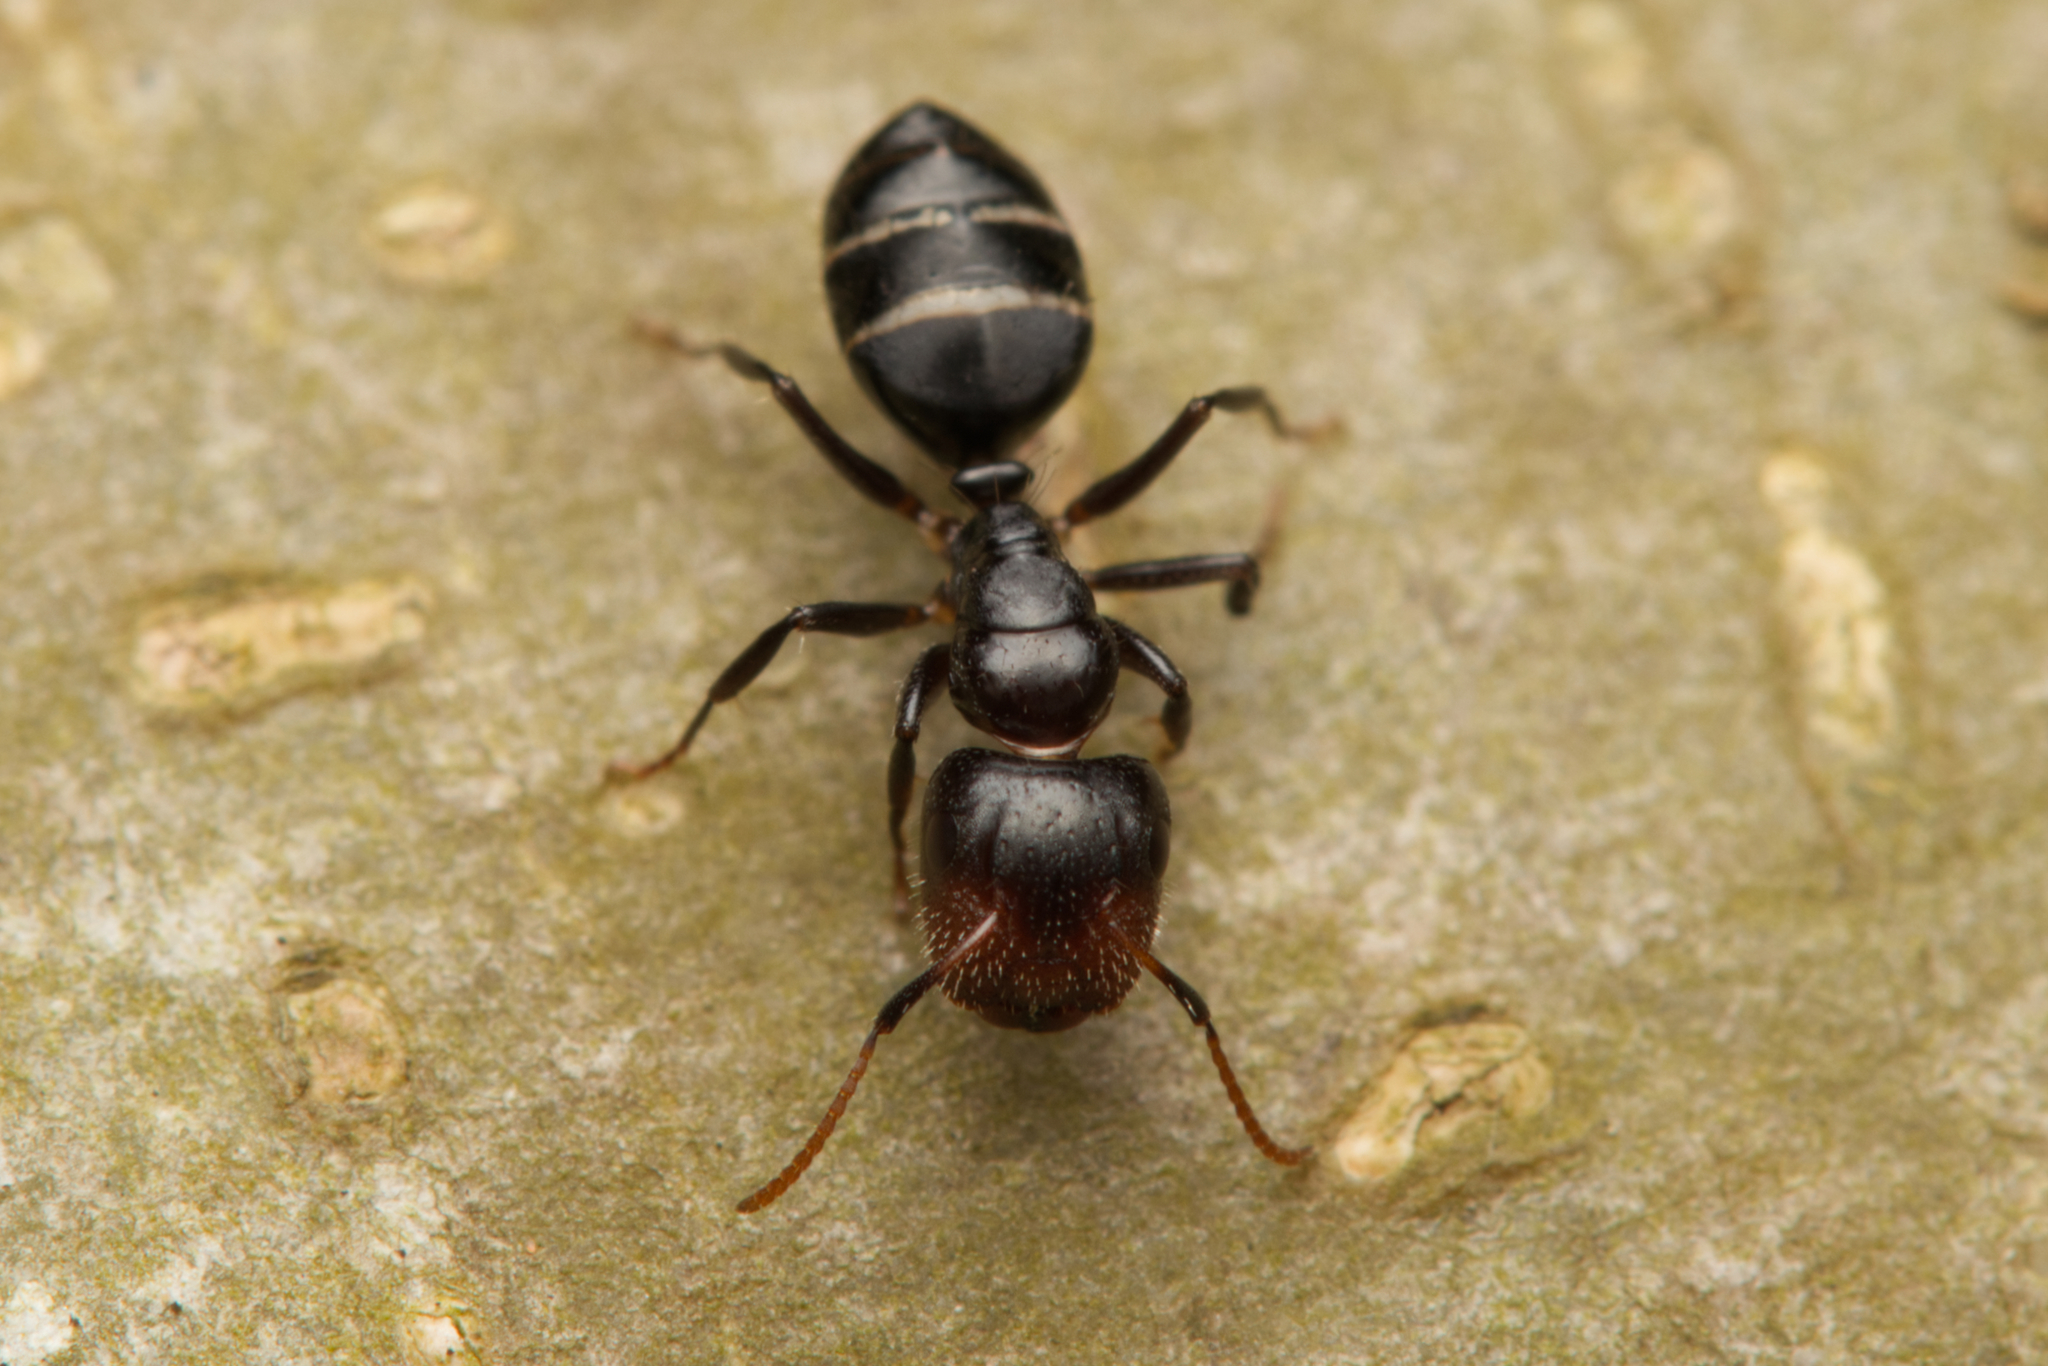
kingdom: Animalia
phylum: Arthropoda
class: Insecta
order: Hymenoptera
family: Formicidae
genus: Camponotus
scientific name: Camponotus mackayensis
